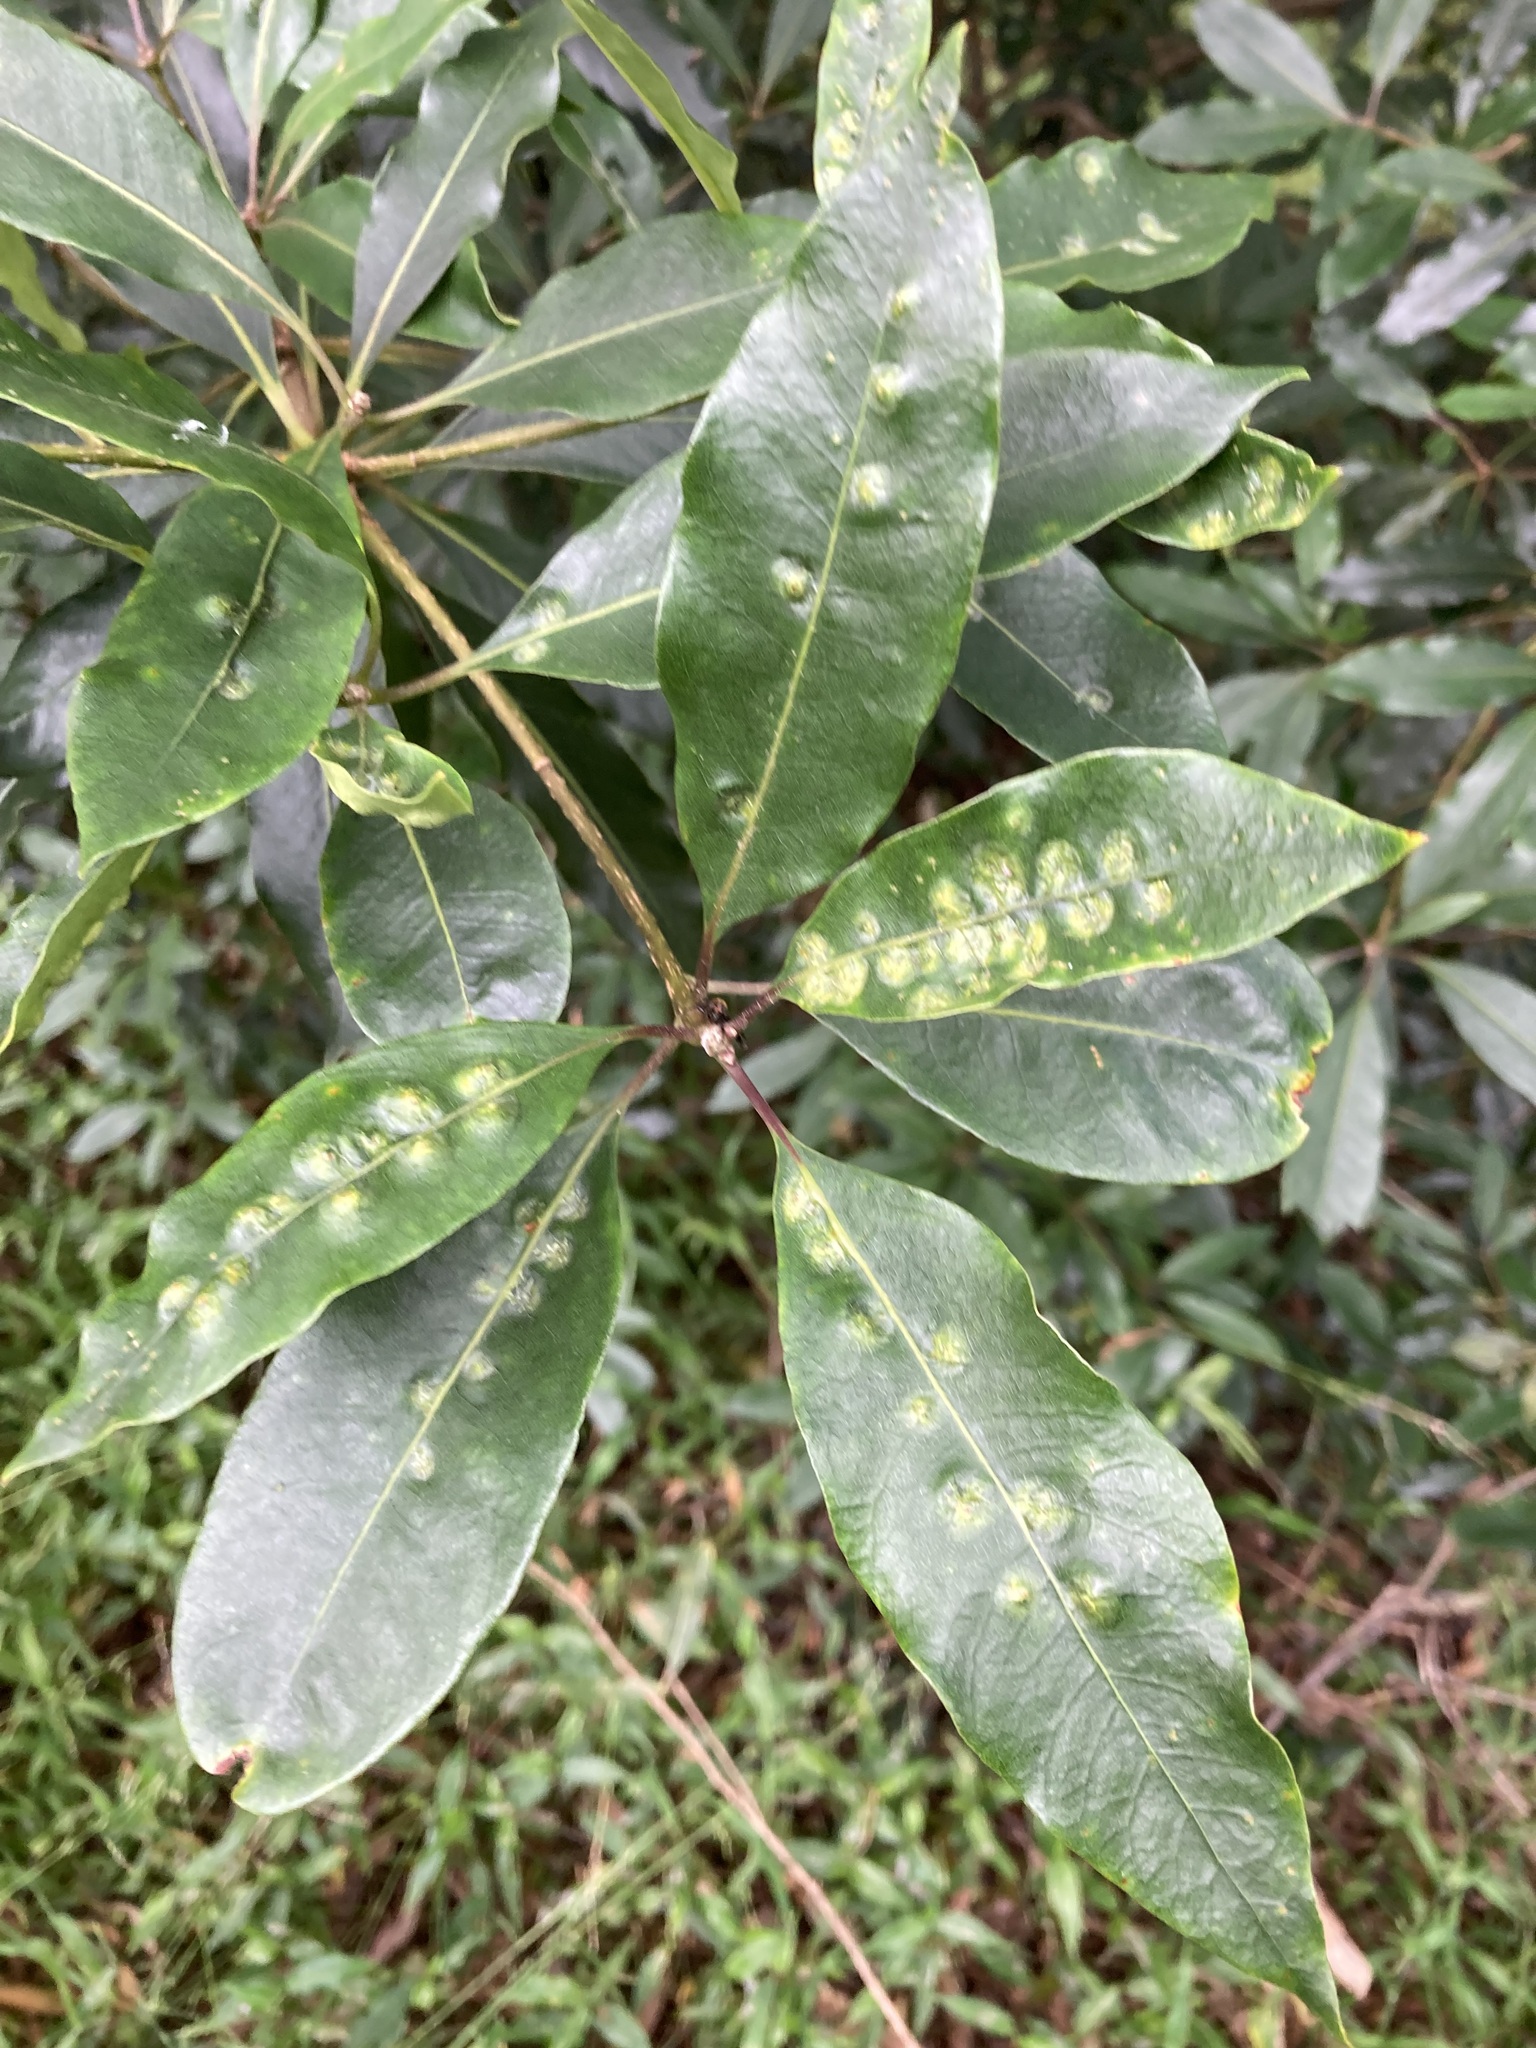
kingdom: Animalia
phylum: Arthropoda
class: Insecta
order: Diptera
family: Agromyzidae
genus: Phytoliriomyza
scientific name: Phytoliriomyza pittosporophylli
